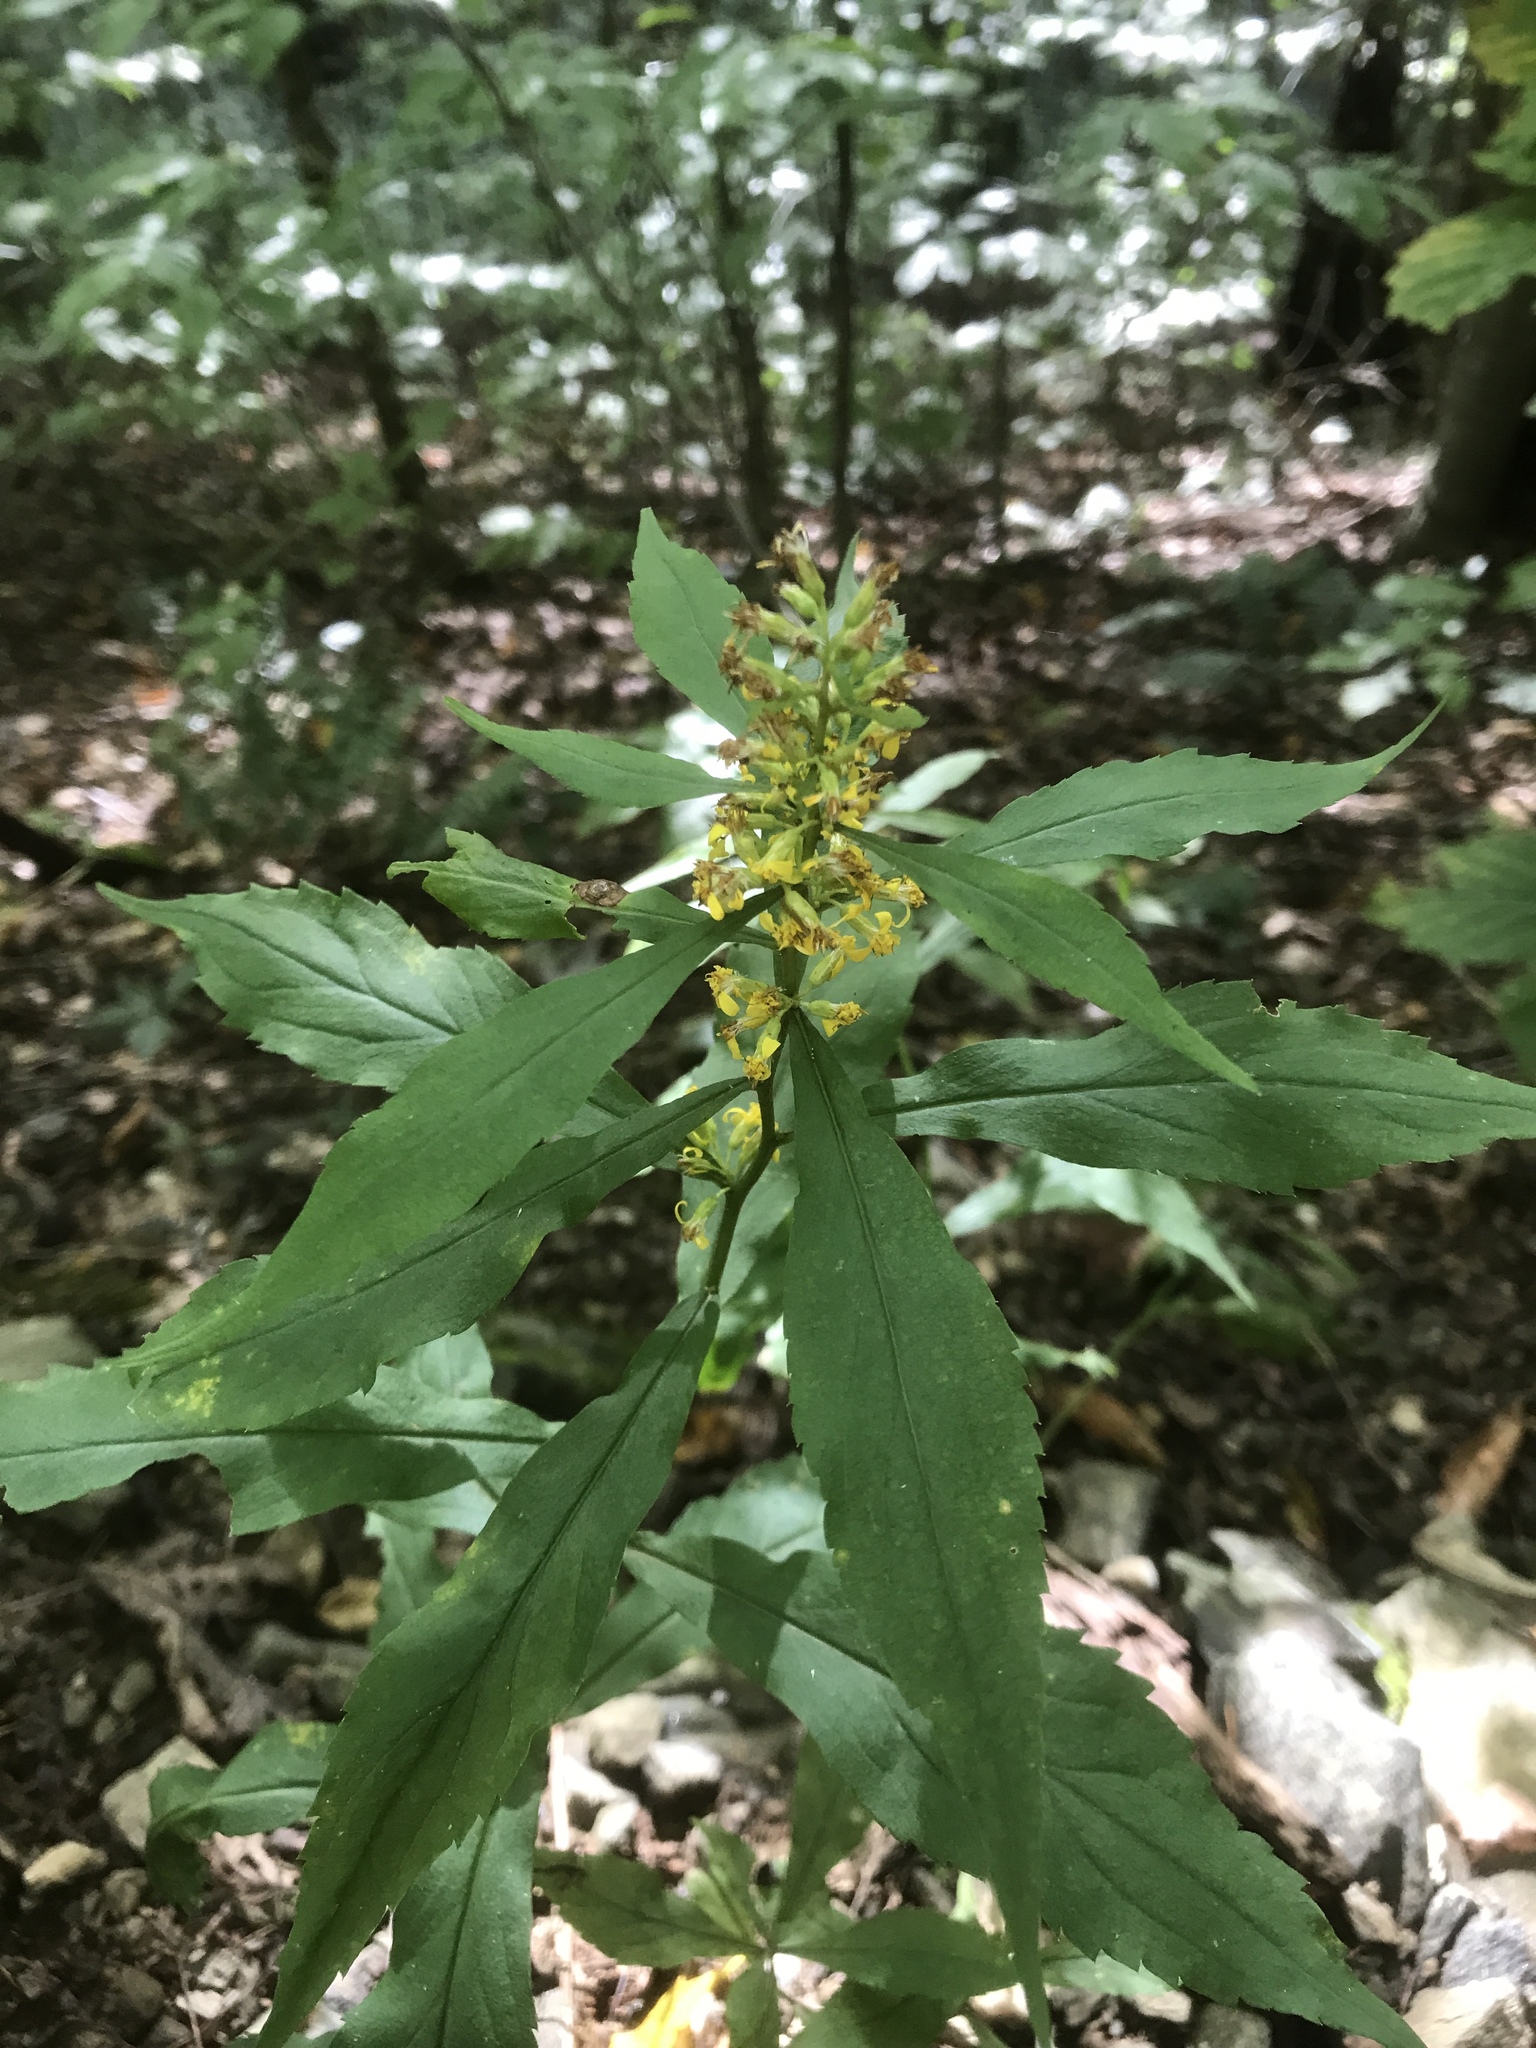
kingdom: Plantae
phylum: Tracheophyta
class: Magnoliopsida
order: Asterales
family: Asteraceae
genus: Solidago
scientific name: Solidago curtisii
